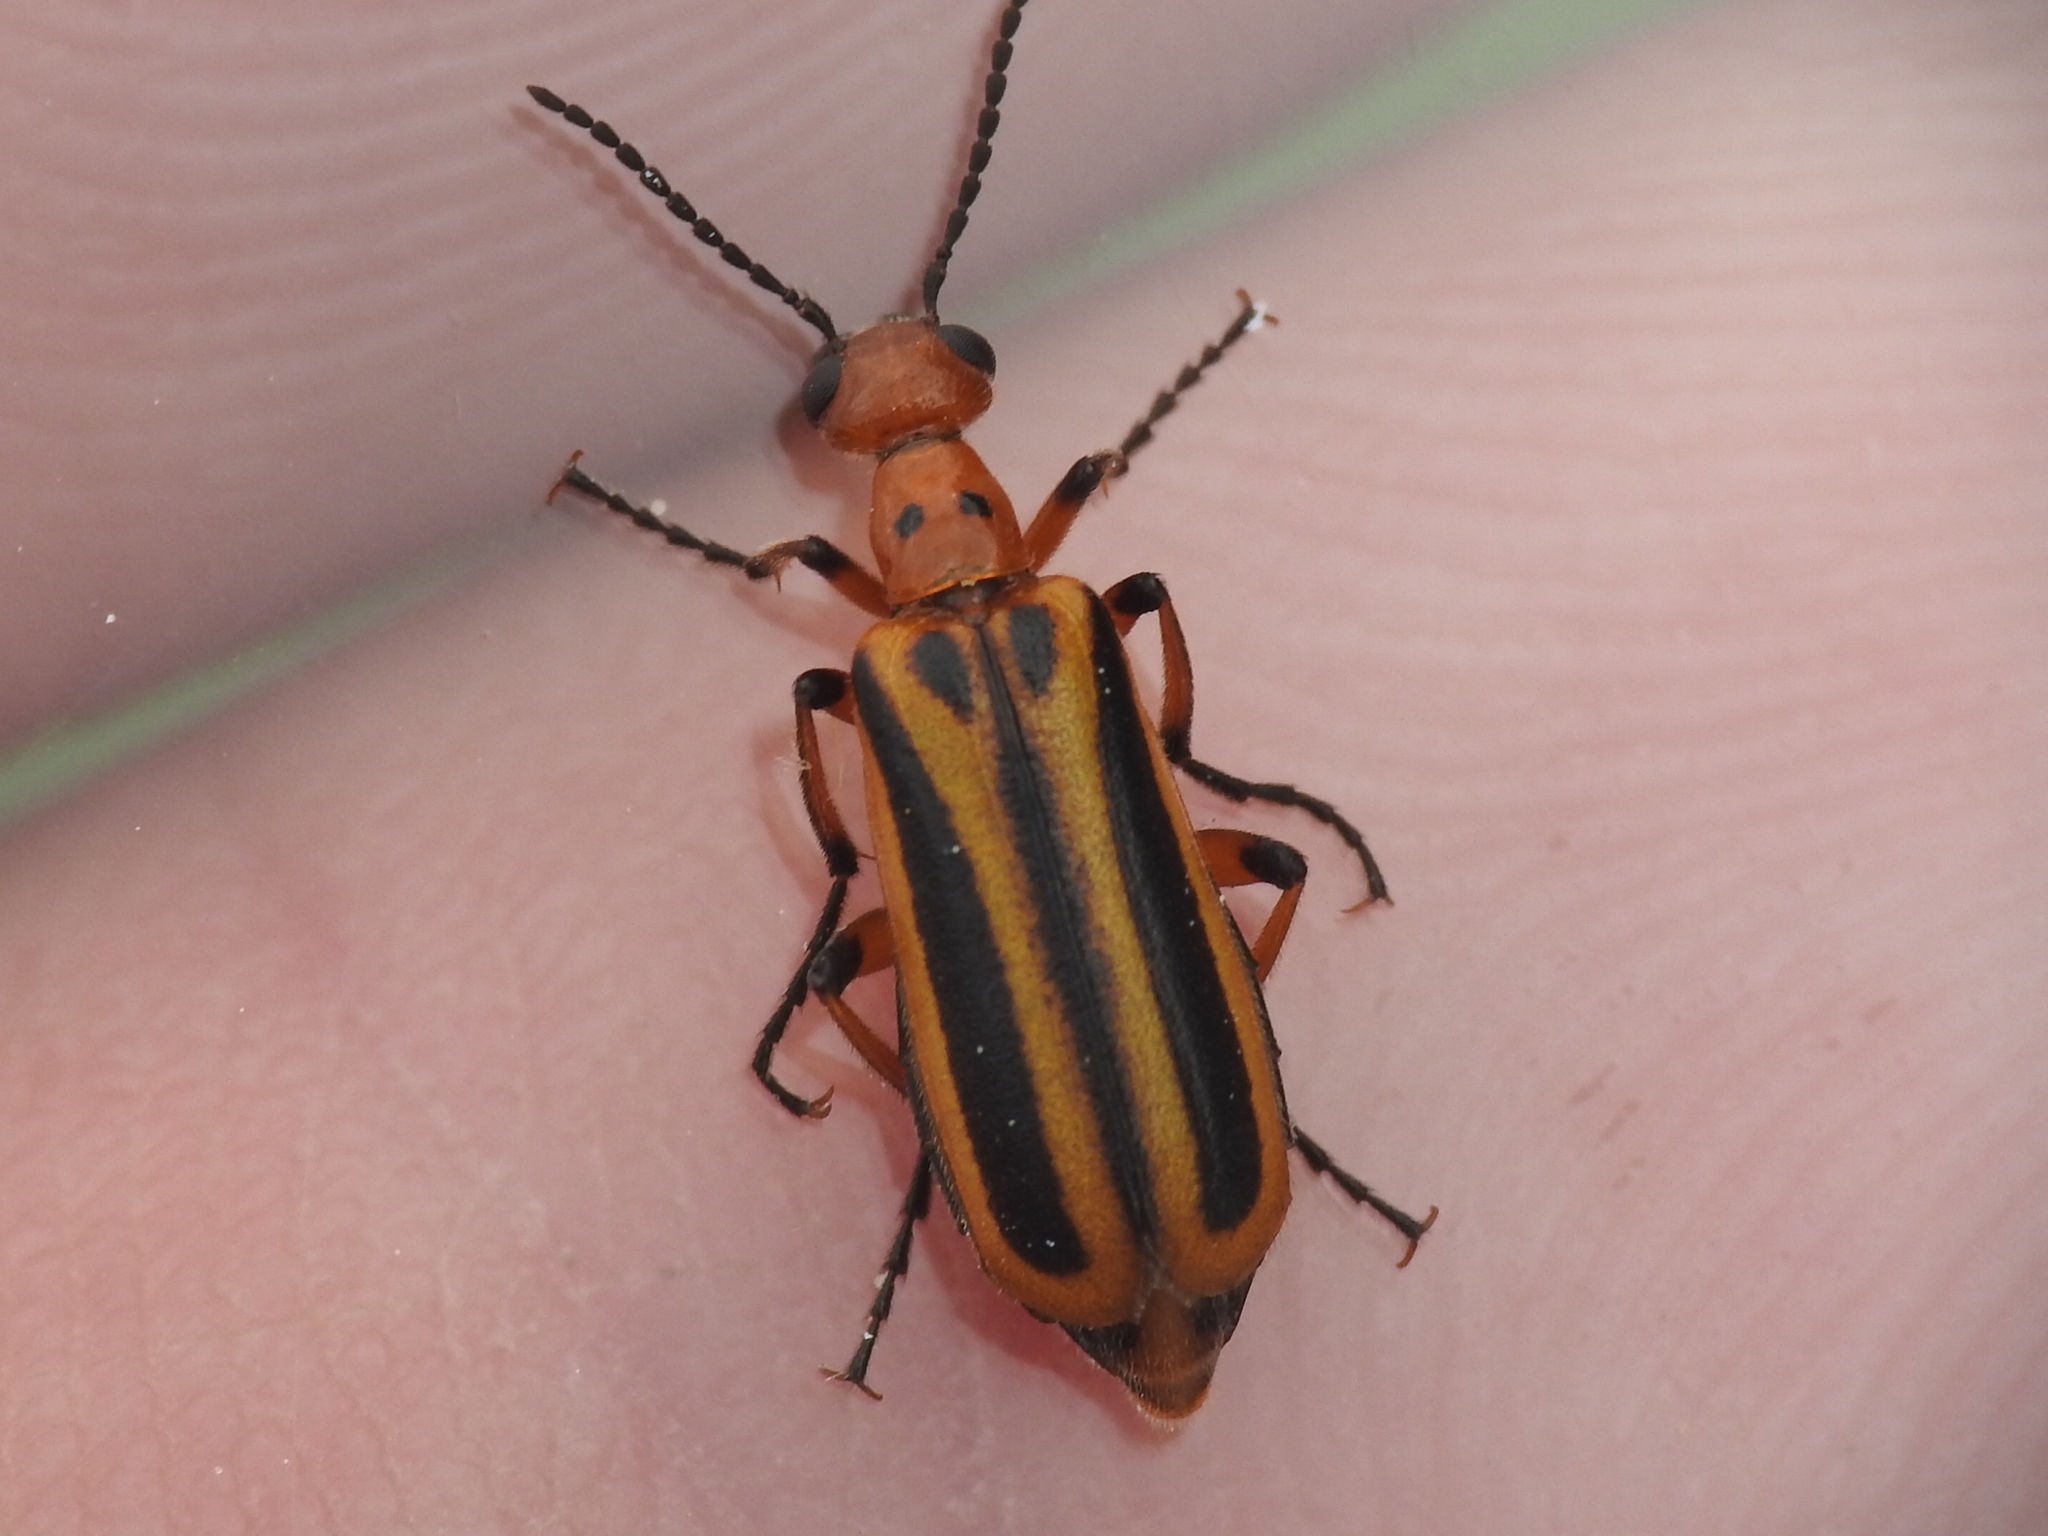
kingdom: Animalia
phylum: Arthropoda
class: Insecta
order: Coleoptera
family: Meloidae
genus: Pyrota
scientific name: Pyrota discoidea
